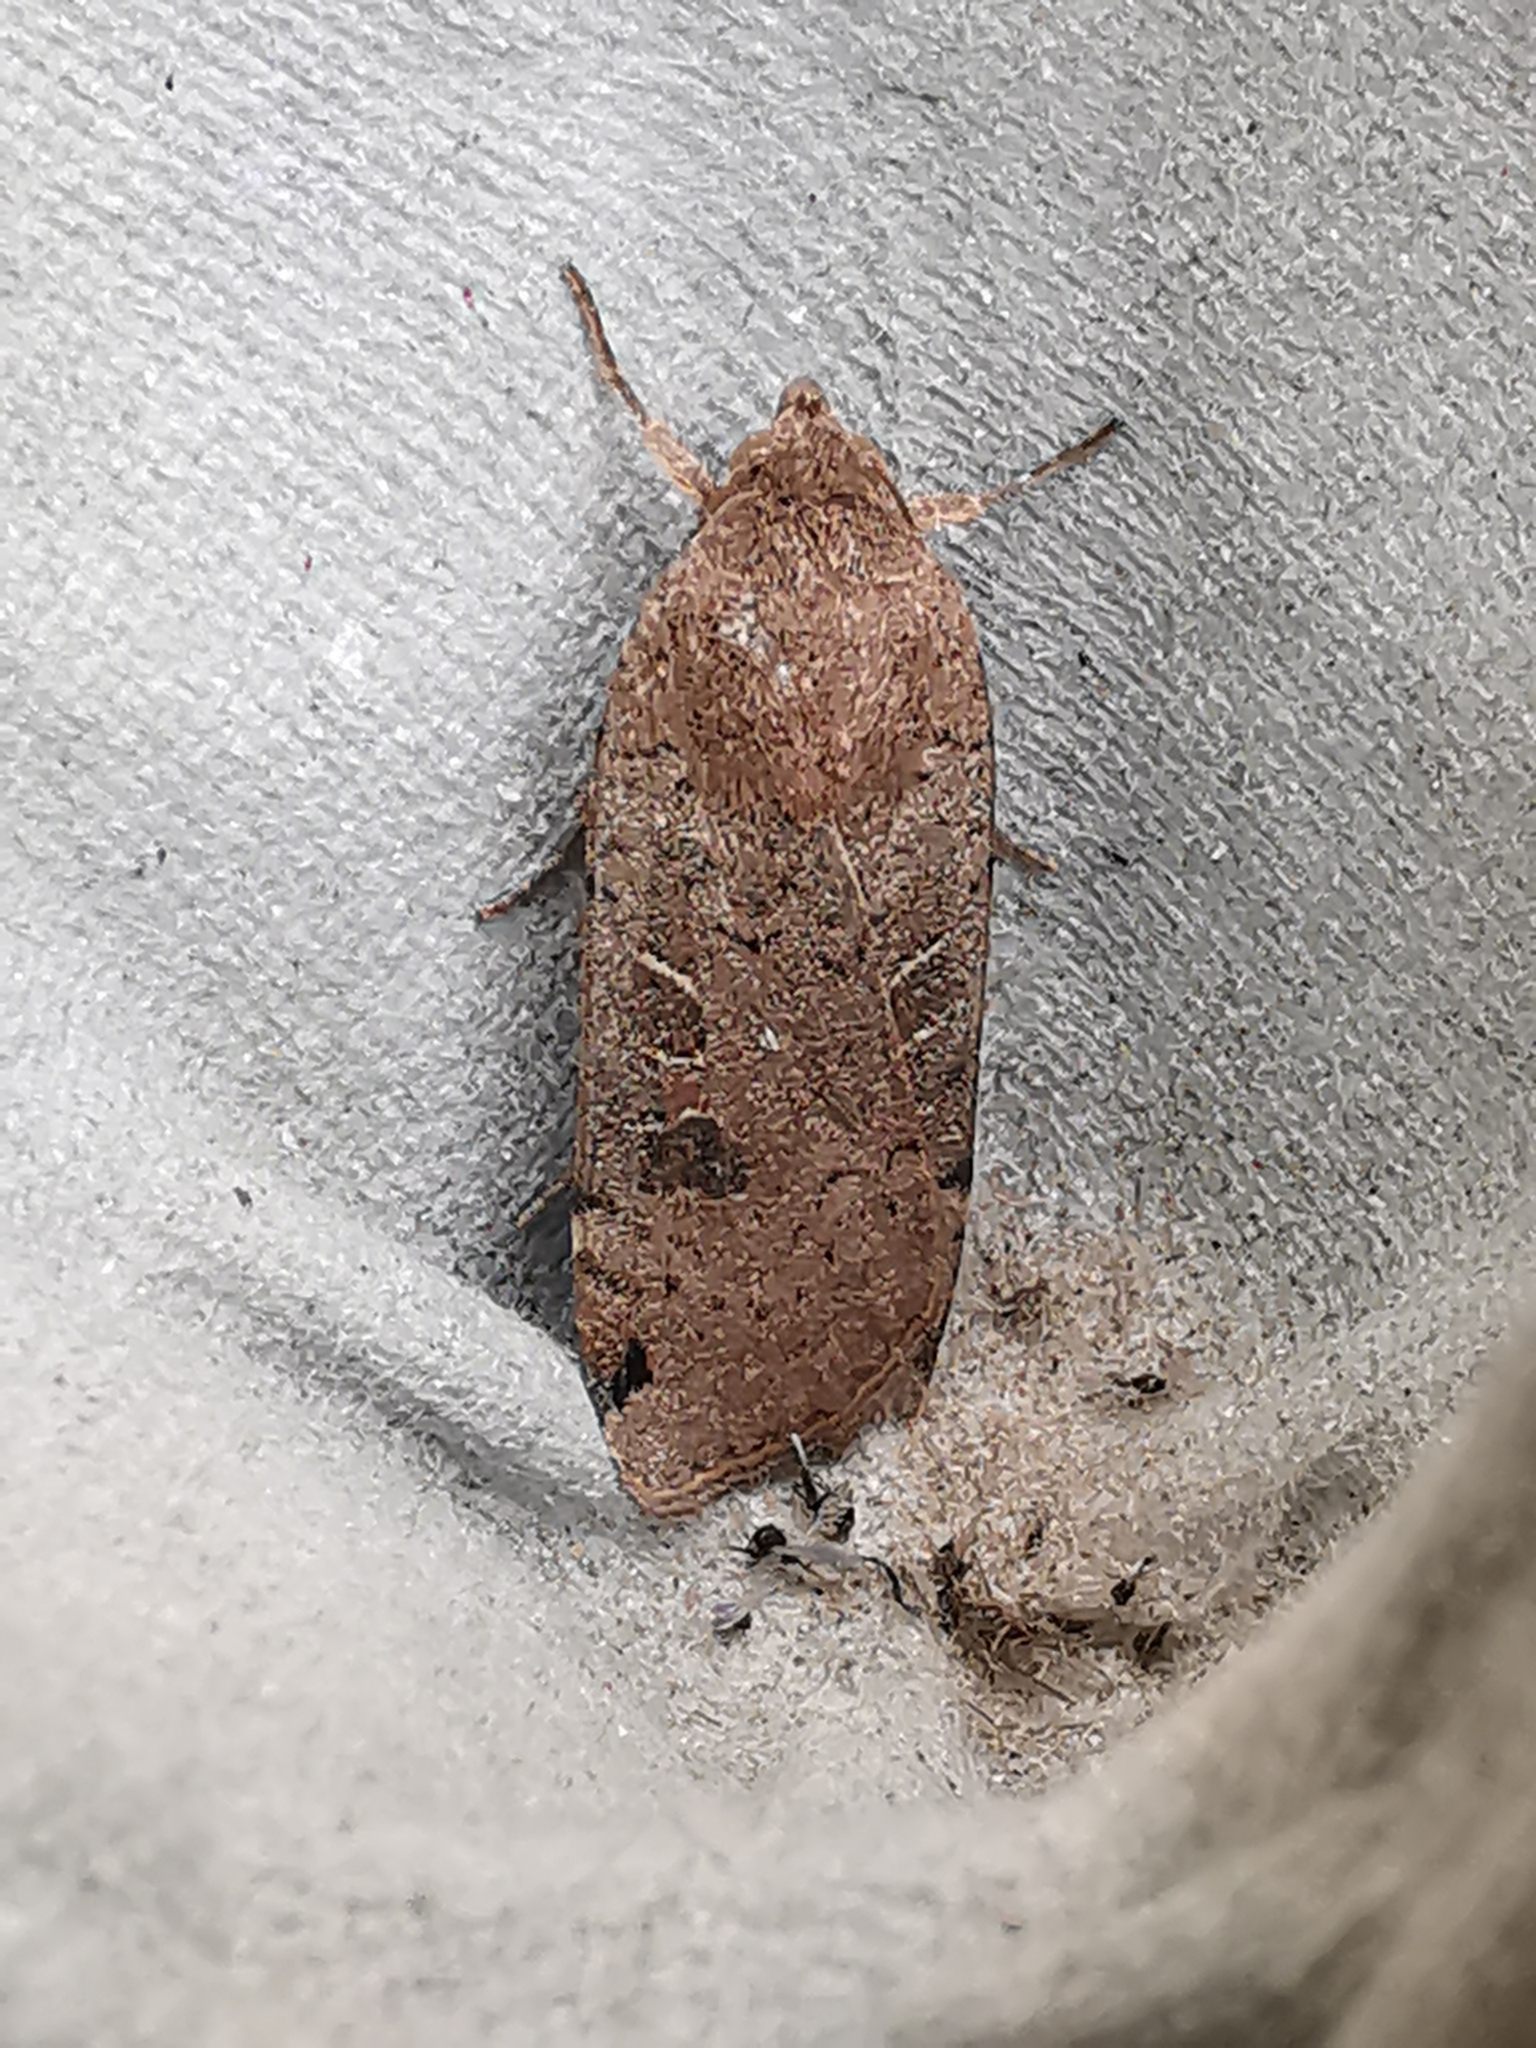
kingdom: Animalia
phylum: Arthropoda
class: Insecta
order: Lepidoptera
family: Noctuidae
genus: Noctua
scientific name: Noctua orbona
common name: Lunar yellow underwing
